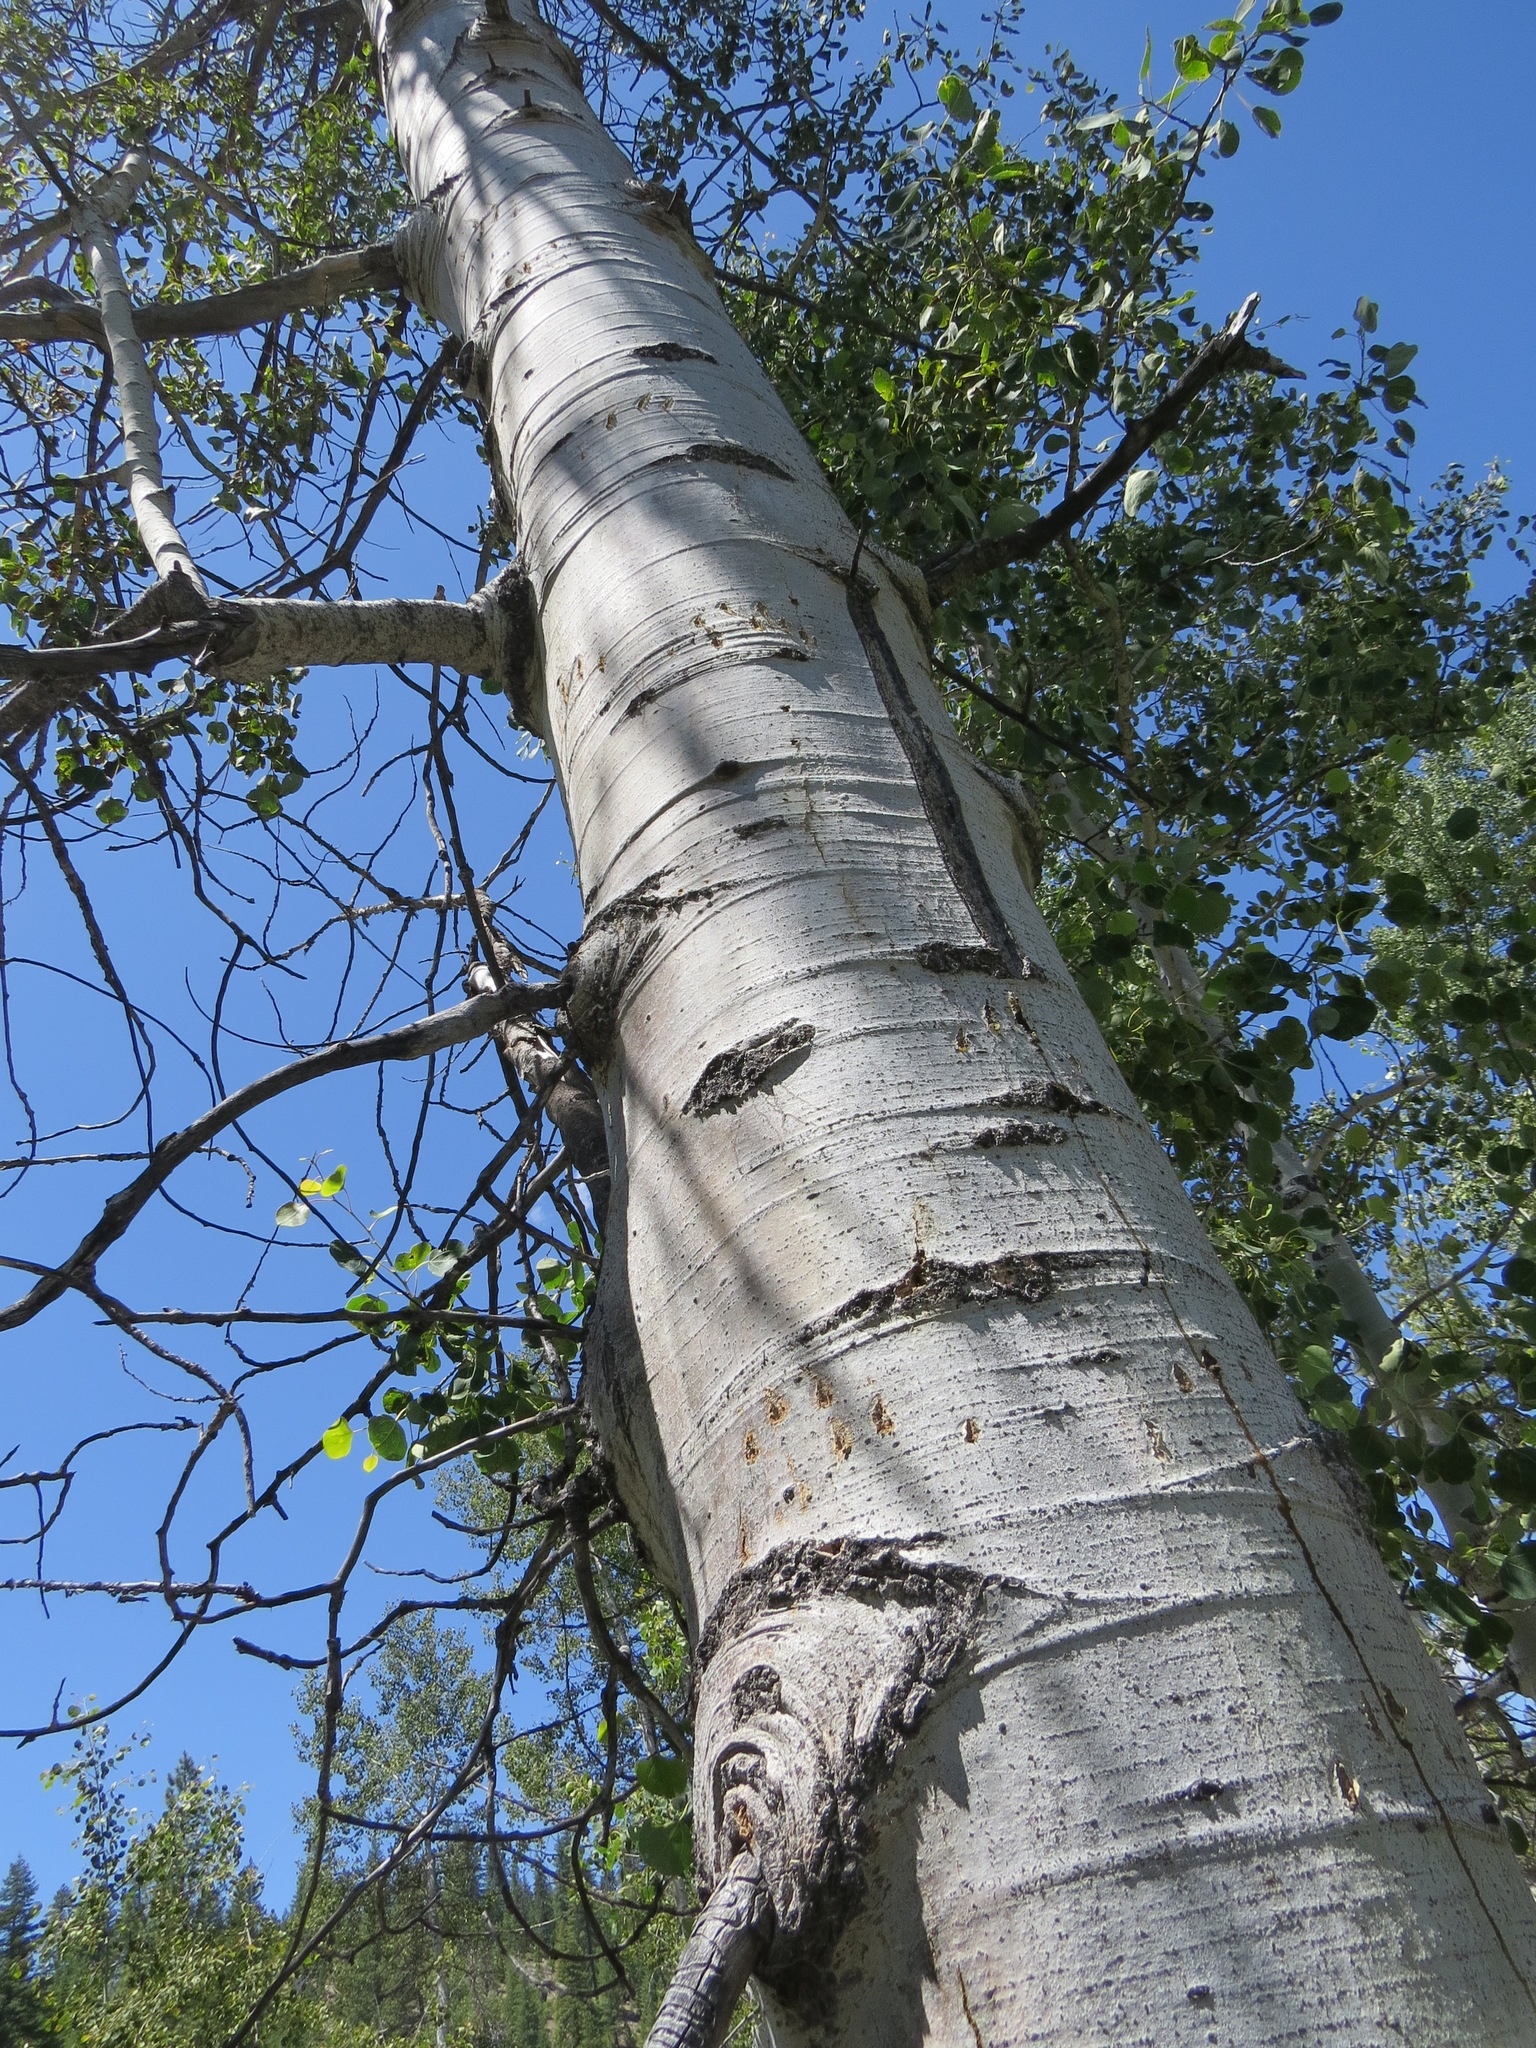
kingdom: Animalia
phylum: Chordata
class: Mammalia
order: Carnivora
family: Ursidae
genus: Ursus
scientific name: Ursus americanus
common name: American black bear
